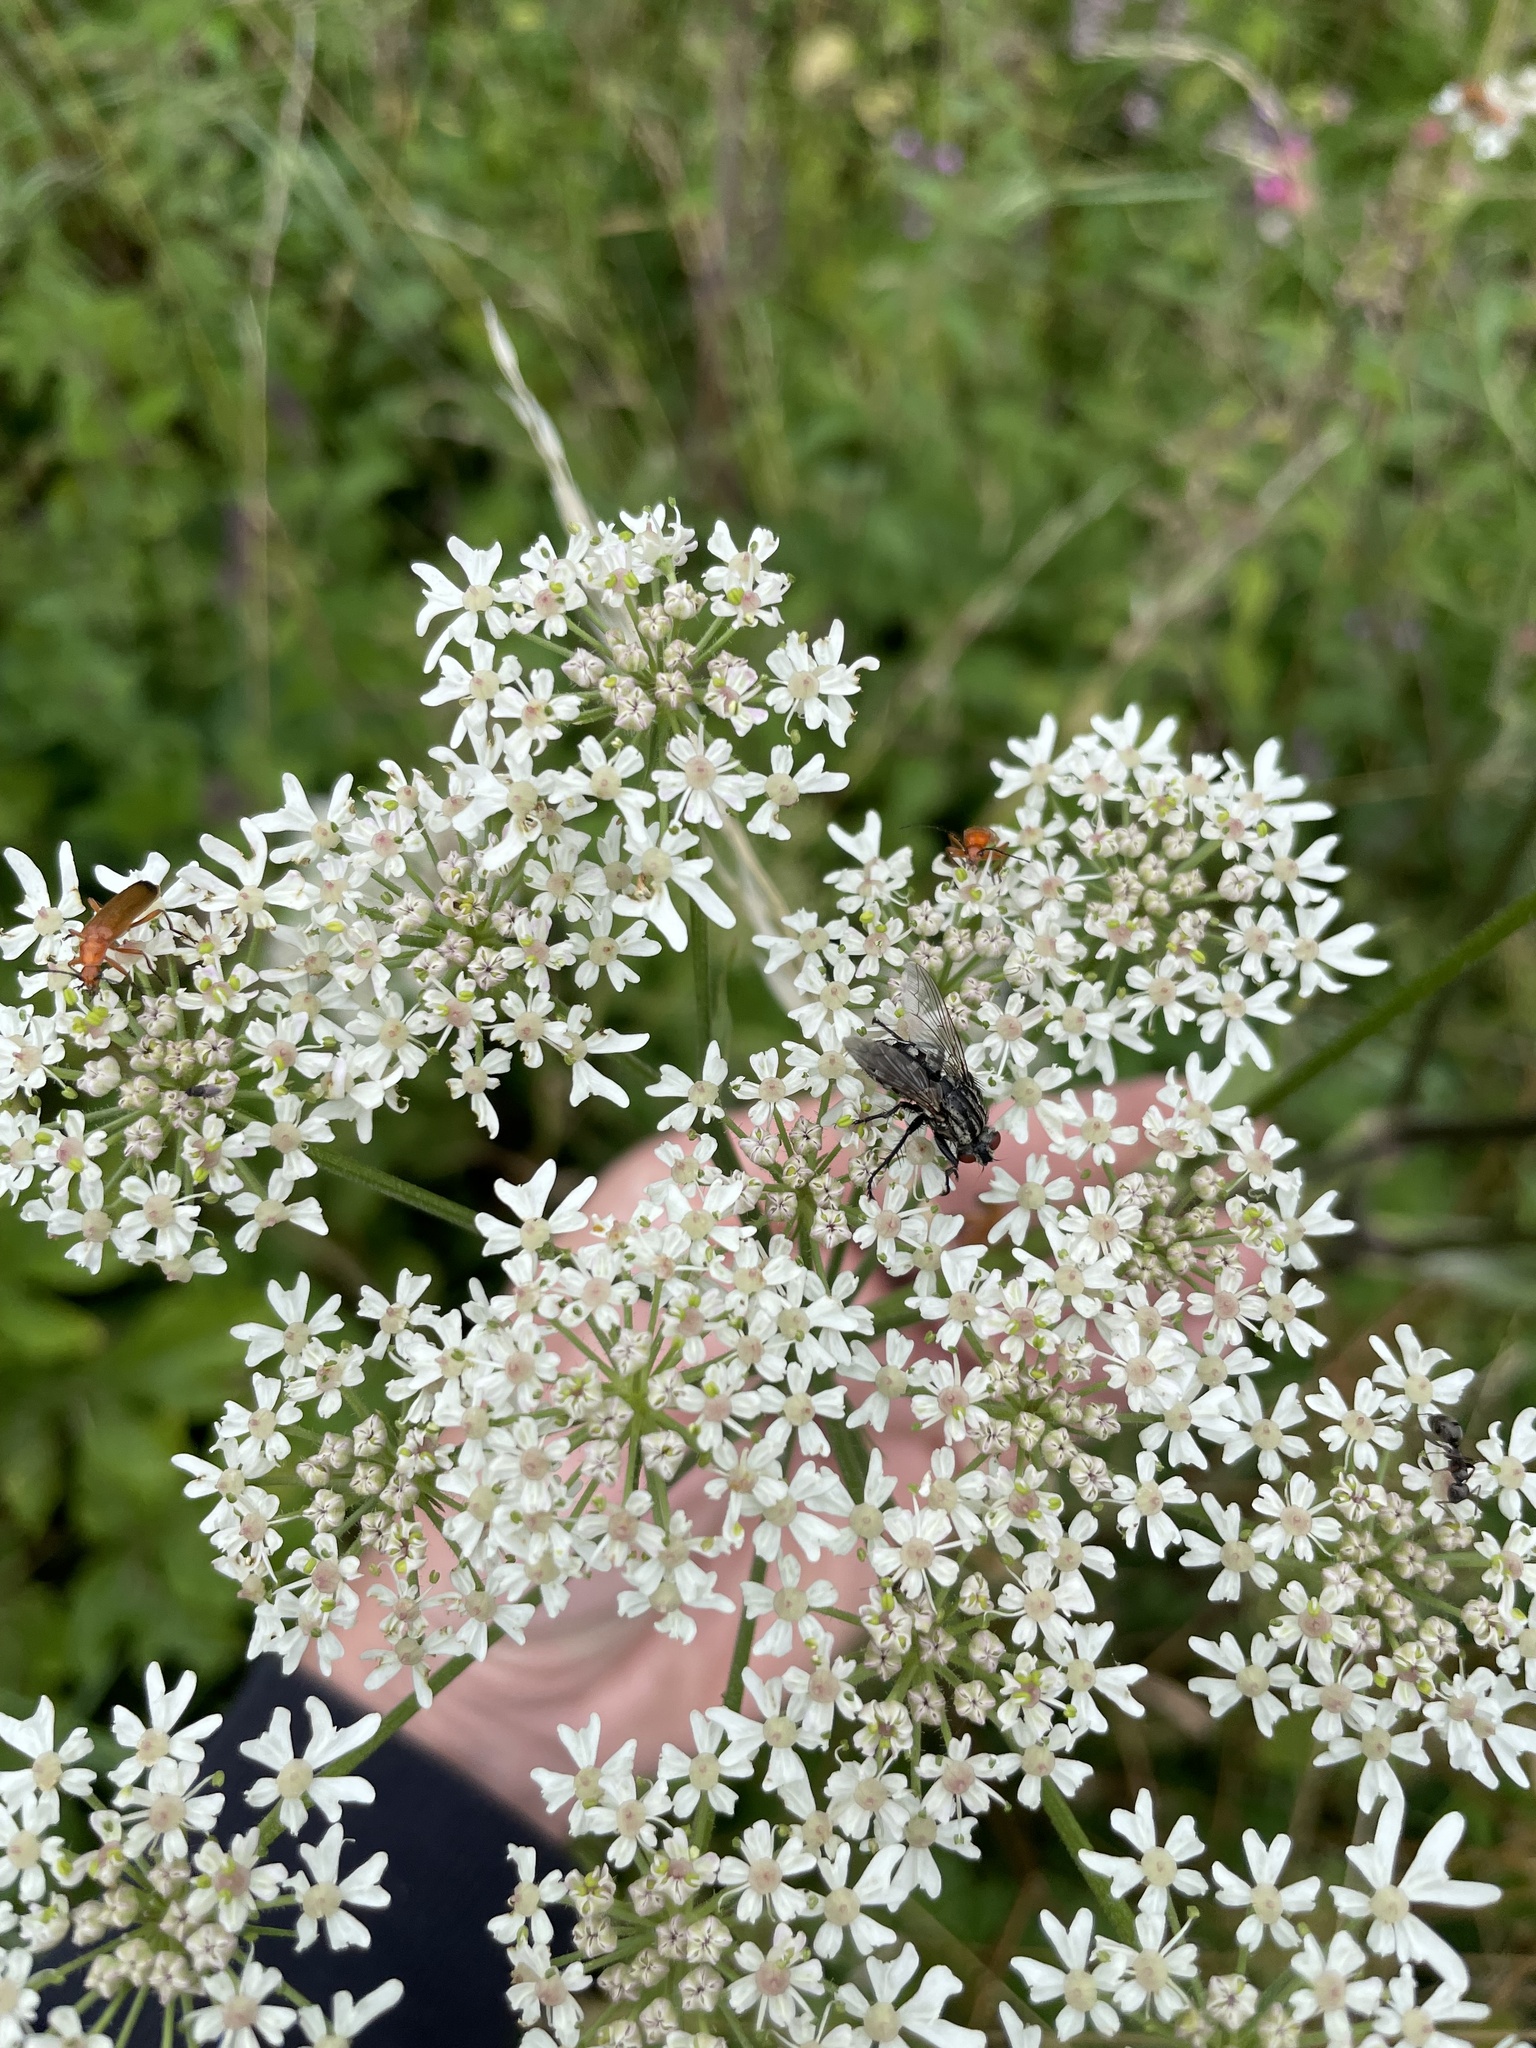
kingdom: Plantae
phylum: Tracheophyta
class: Magnoliopsida
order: Apiales
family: Apiaceae
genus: Heracleum
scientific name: Heracleum sphondylium
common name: Hogweed
